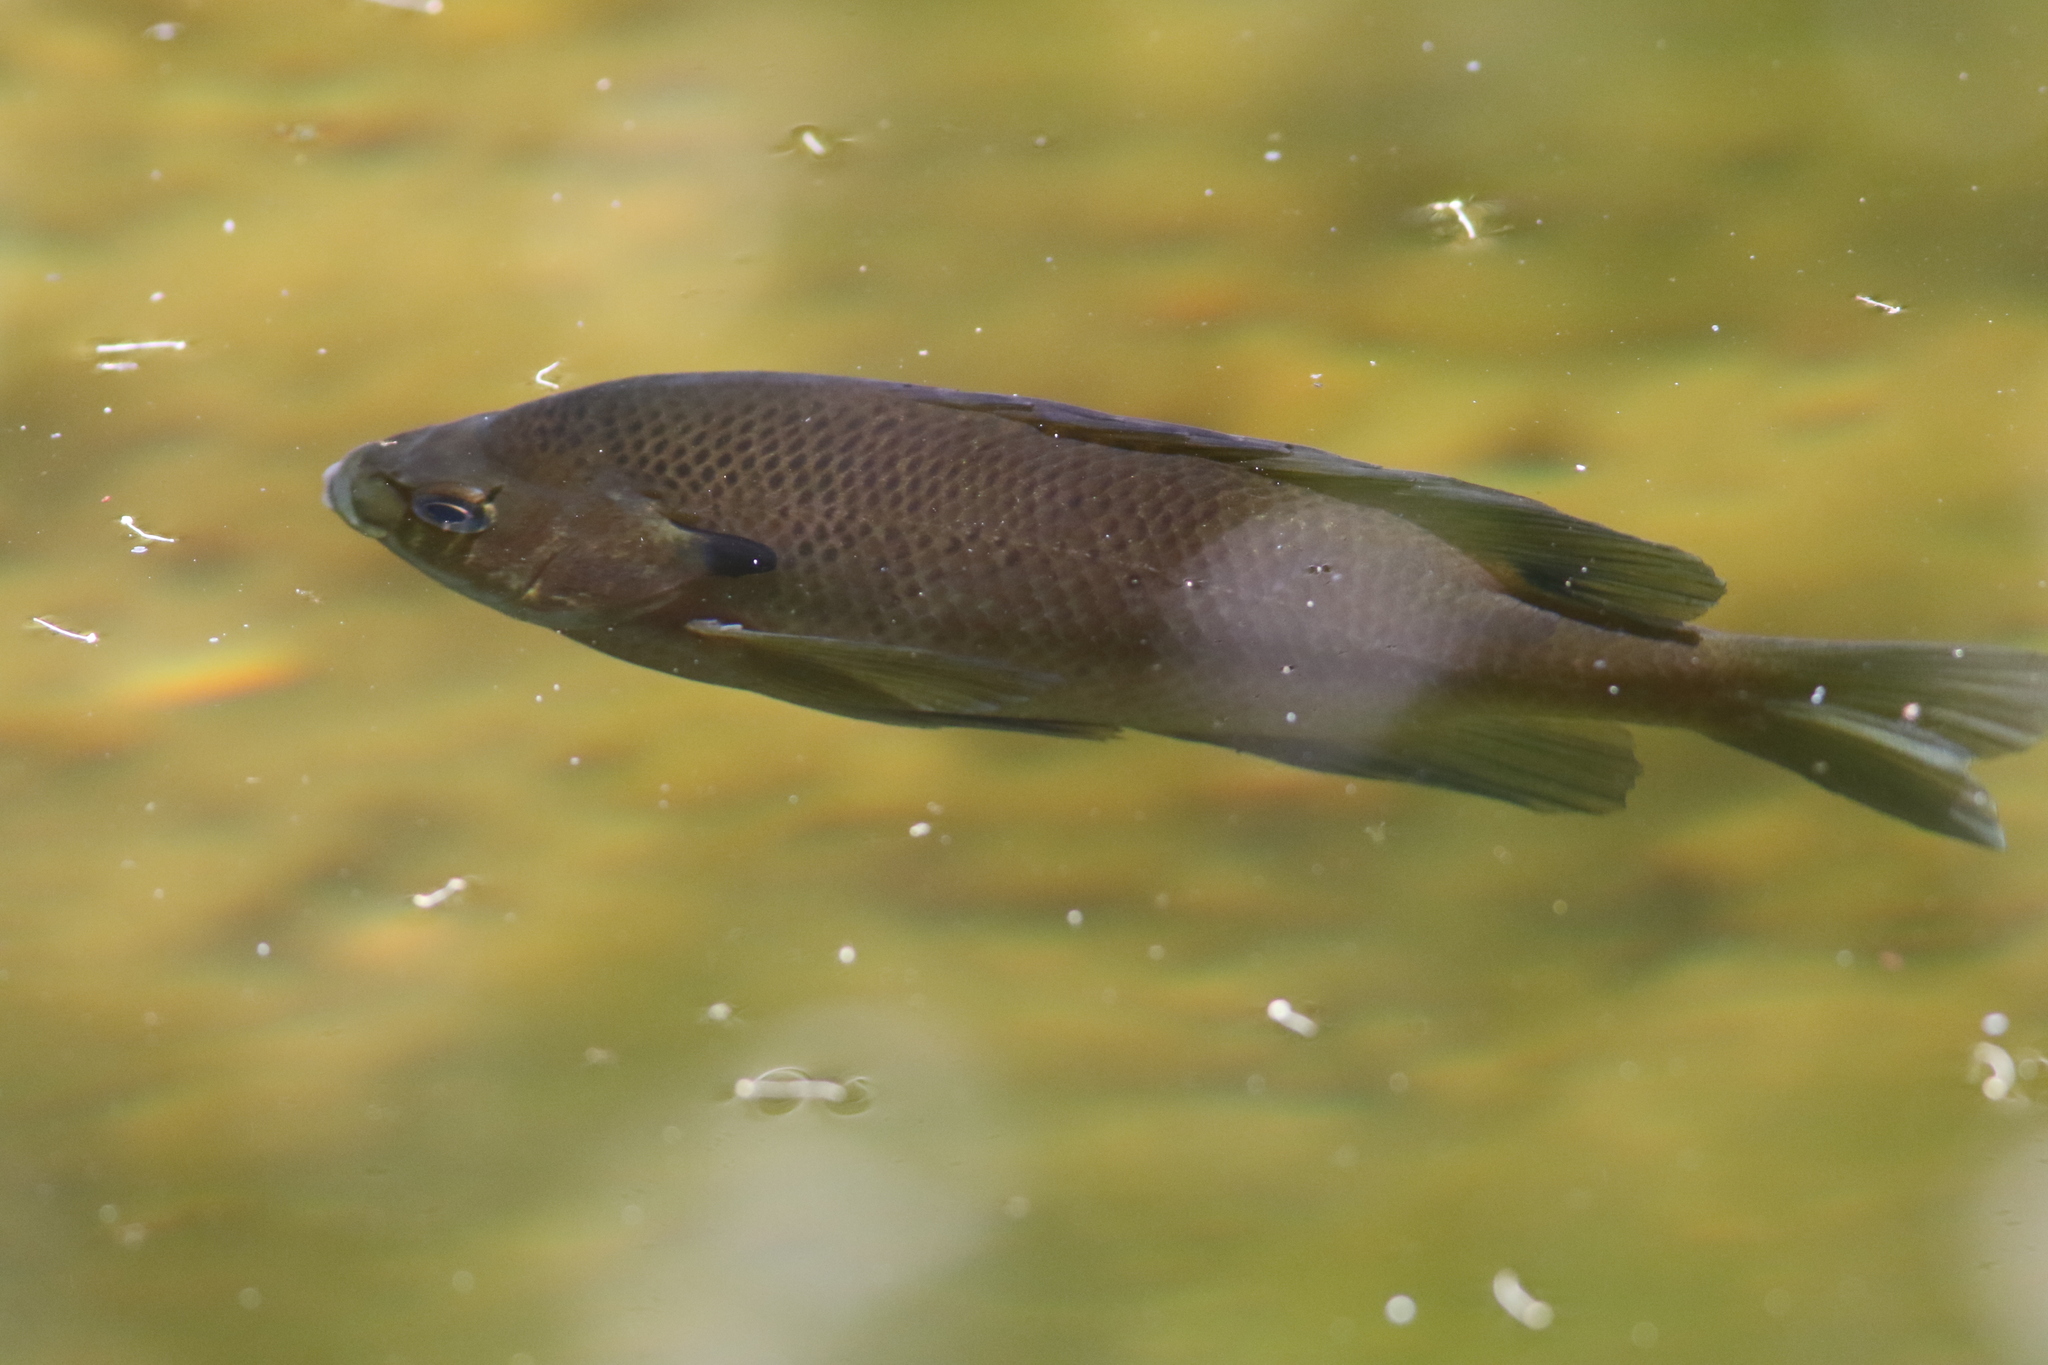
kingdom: Animalia
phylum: Chordata
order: Perciformes
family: Centrarchidae
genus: Lepomis
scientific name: Lepomis macrochirus
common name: Bluegill
